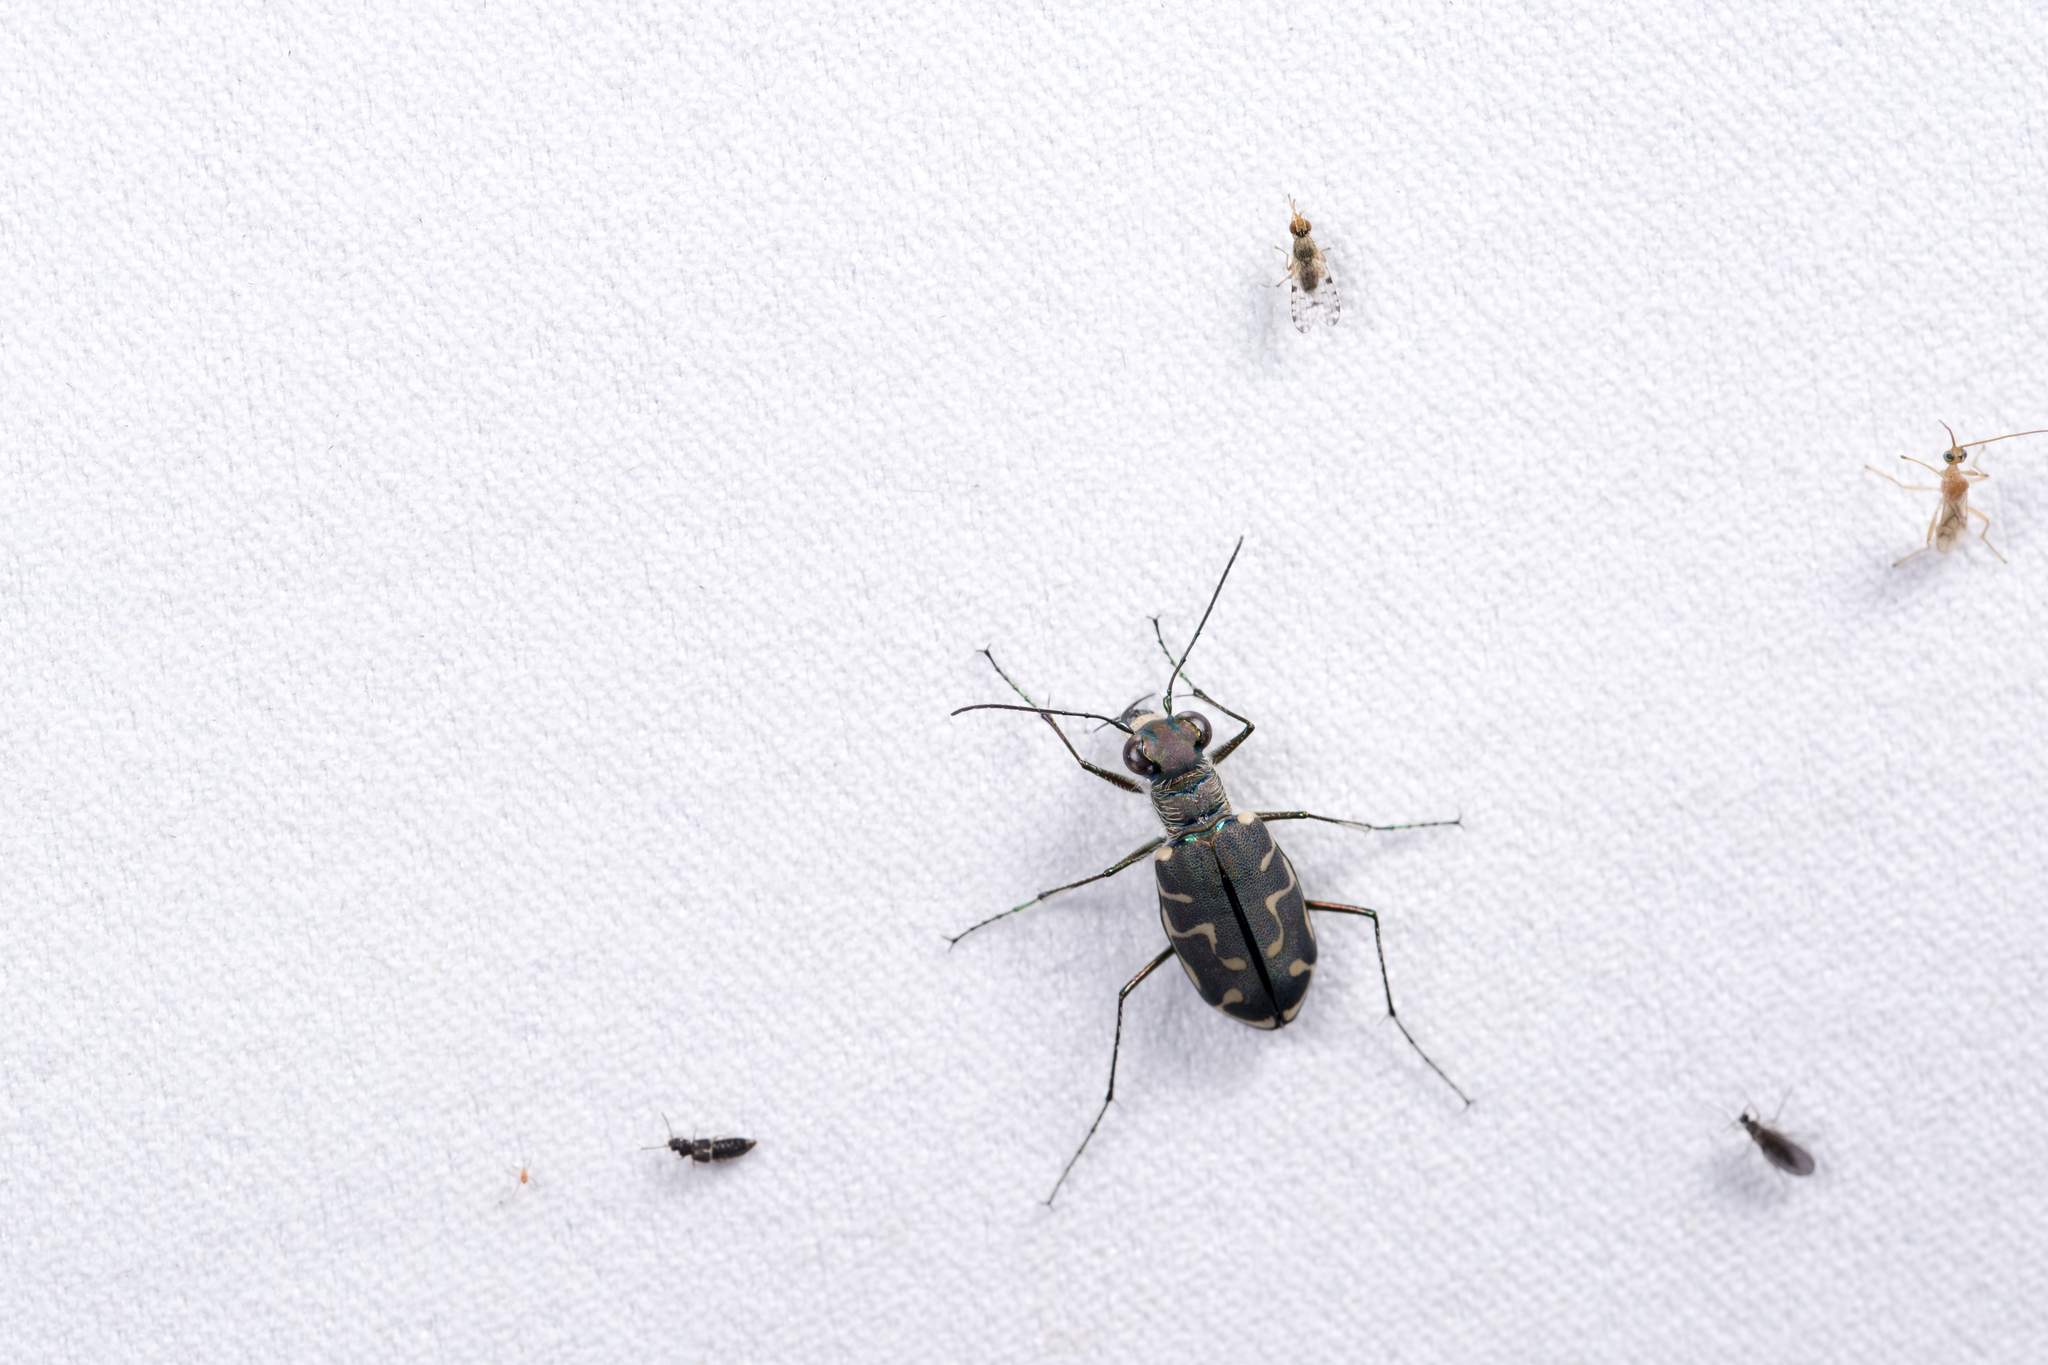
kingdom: Animalia
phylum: Arthropoda
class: Insecta
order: Coleoptera
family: Carabidae
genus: Cicindela
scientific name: Cicindela angulata
